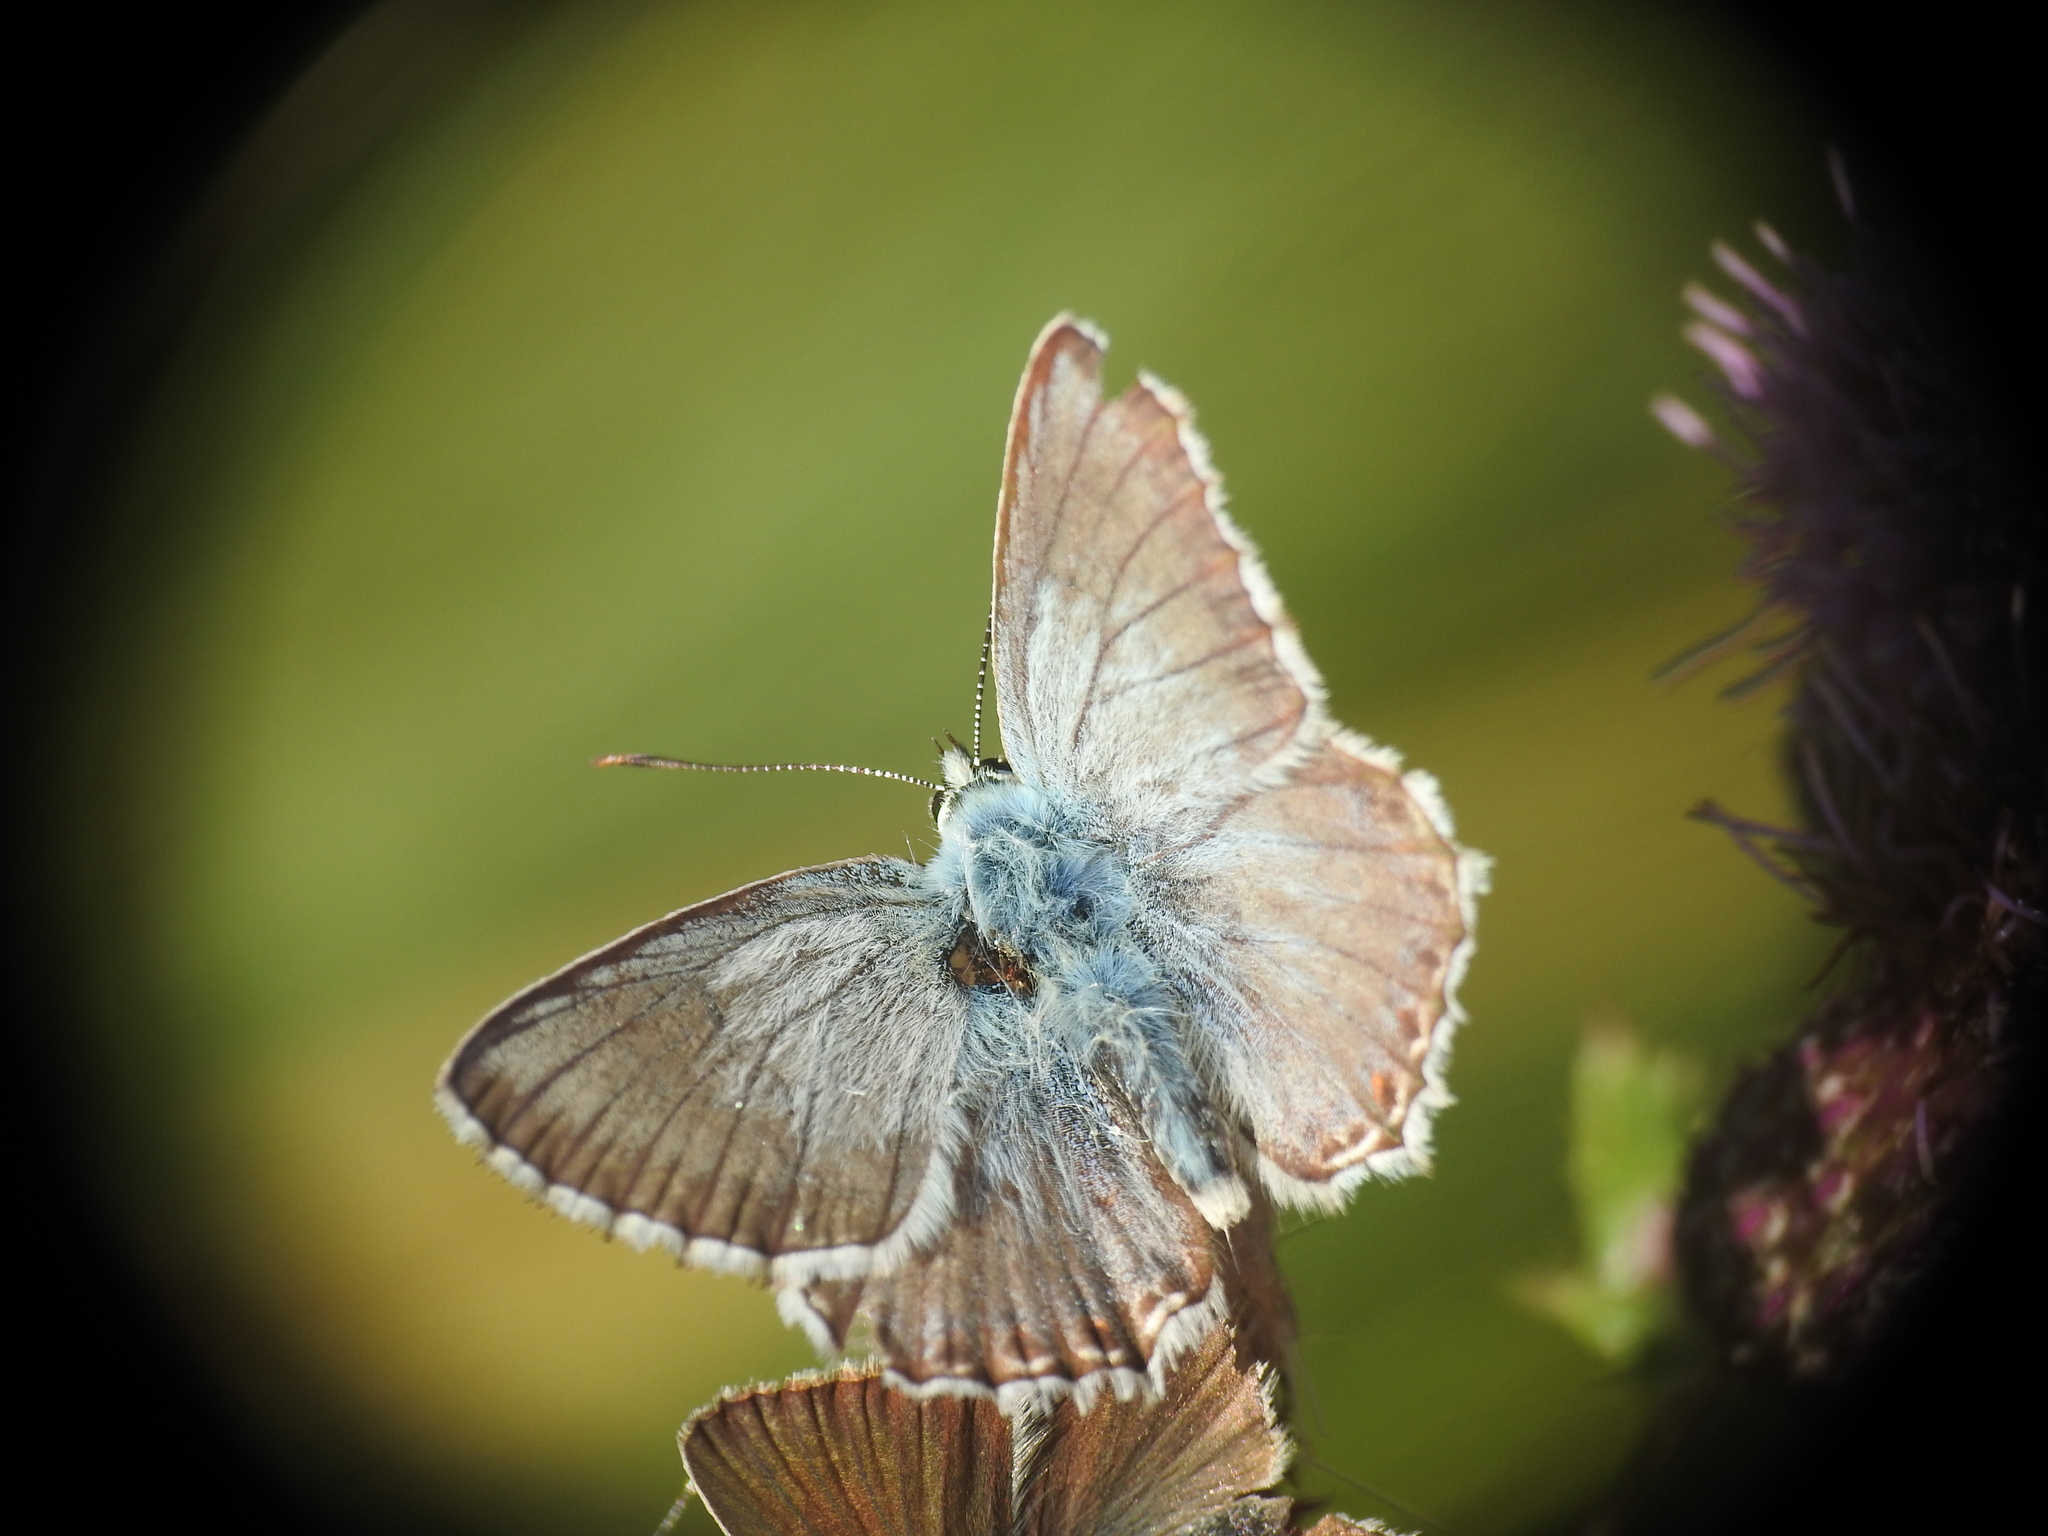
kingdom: Animalia
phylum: Arthropoda
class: Insecta
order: Lepidoptera
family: Lycaenidae
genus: Lysandra
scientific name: Lysandra coridon
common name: Chalkhill blue
